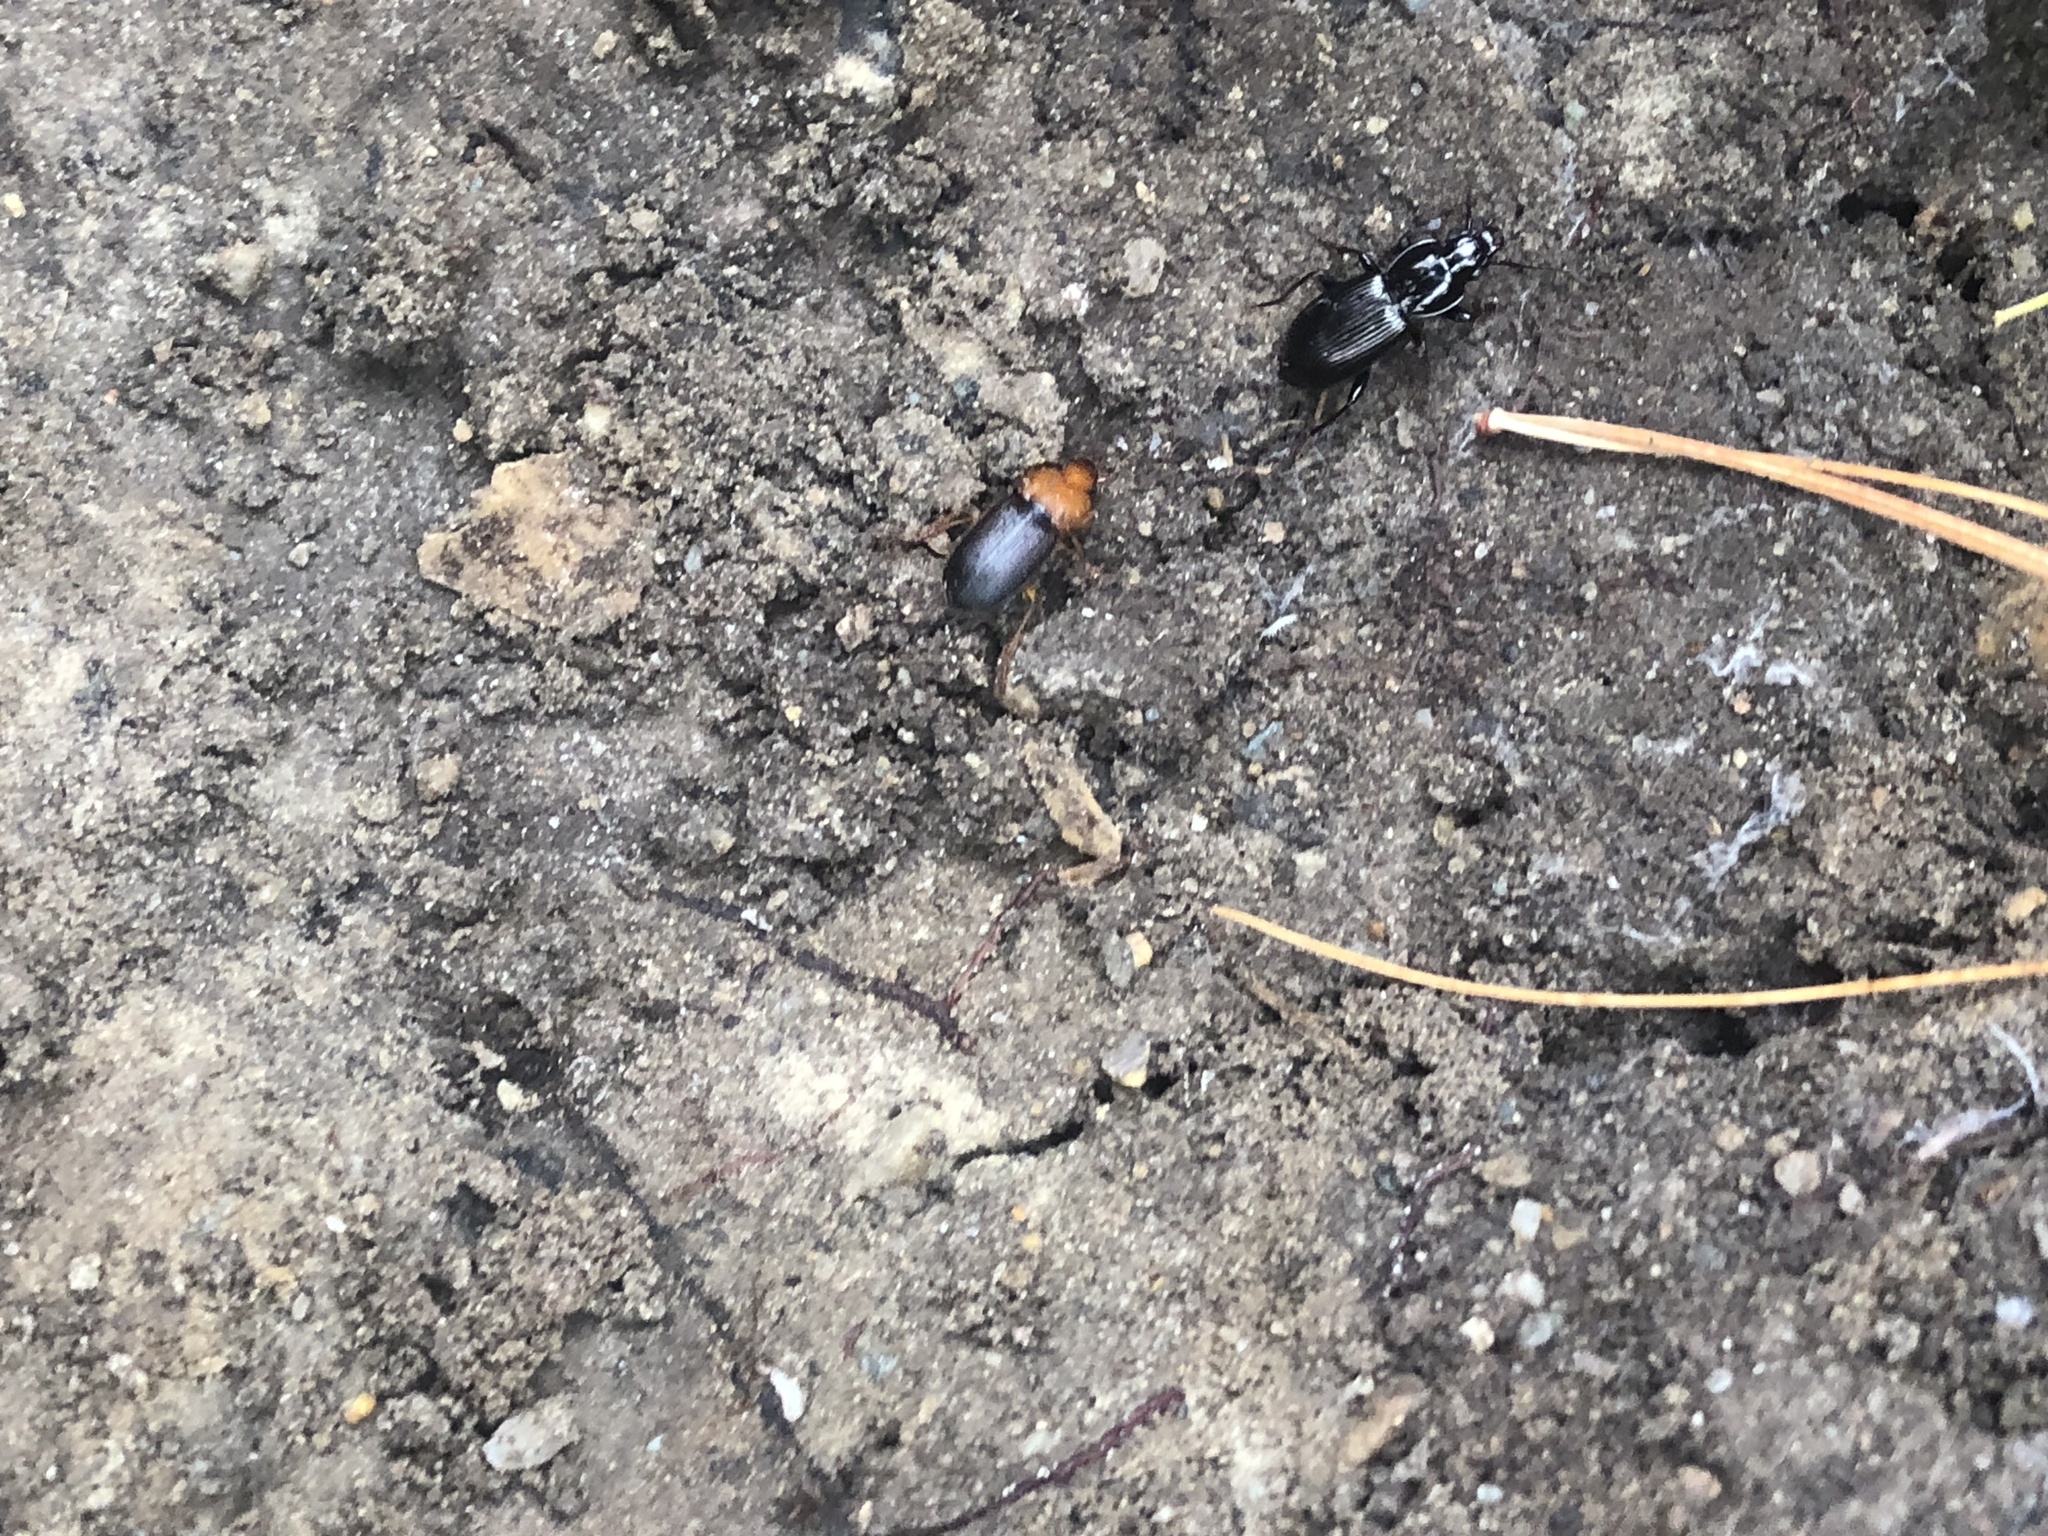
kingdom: Animalia
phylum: Arthropoda
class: Insecta
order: Coleoptera
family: Carabidae
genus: Amphasia
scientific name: Amphasia interstitialis
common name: Red-headed ground beetle
